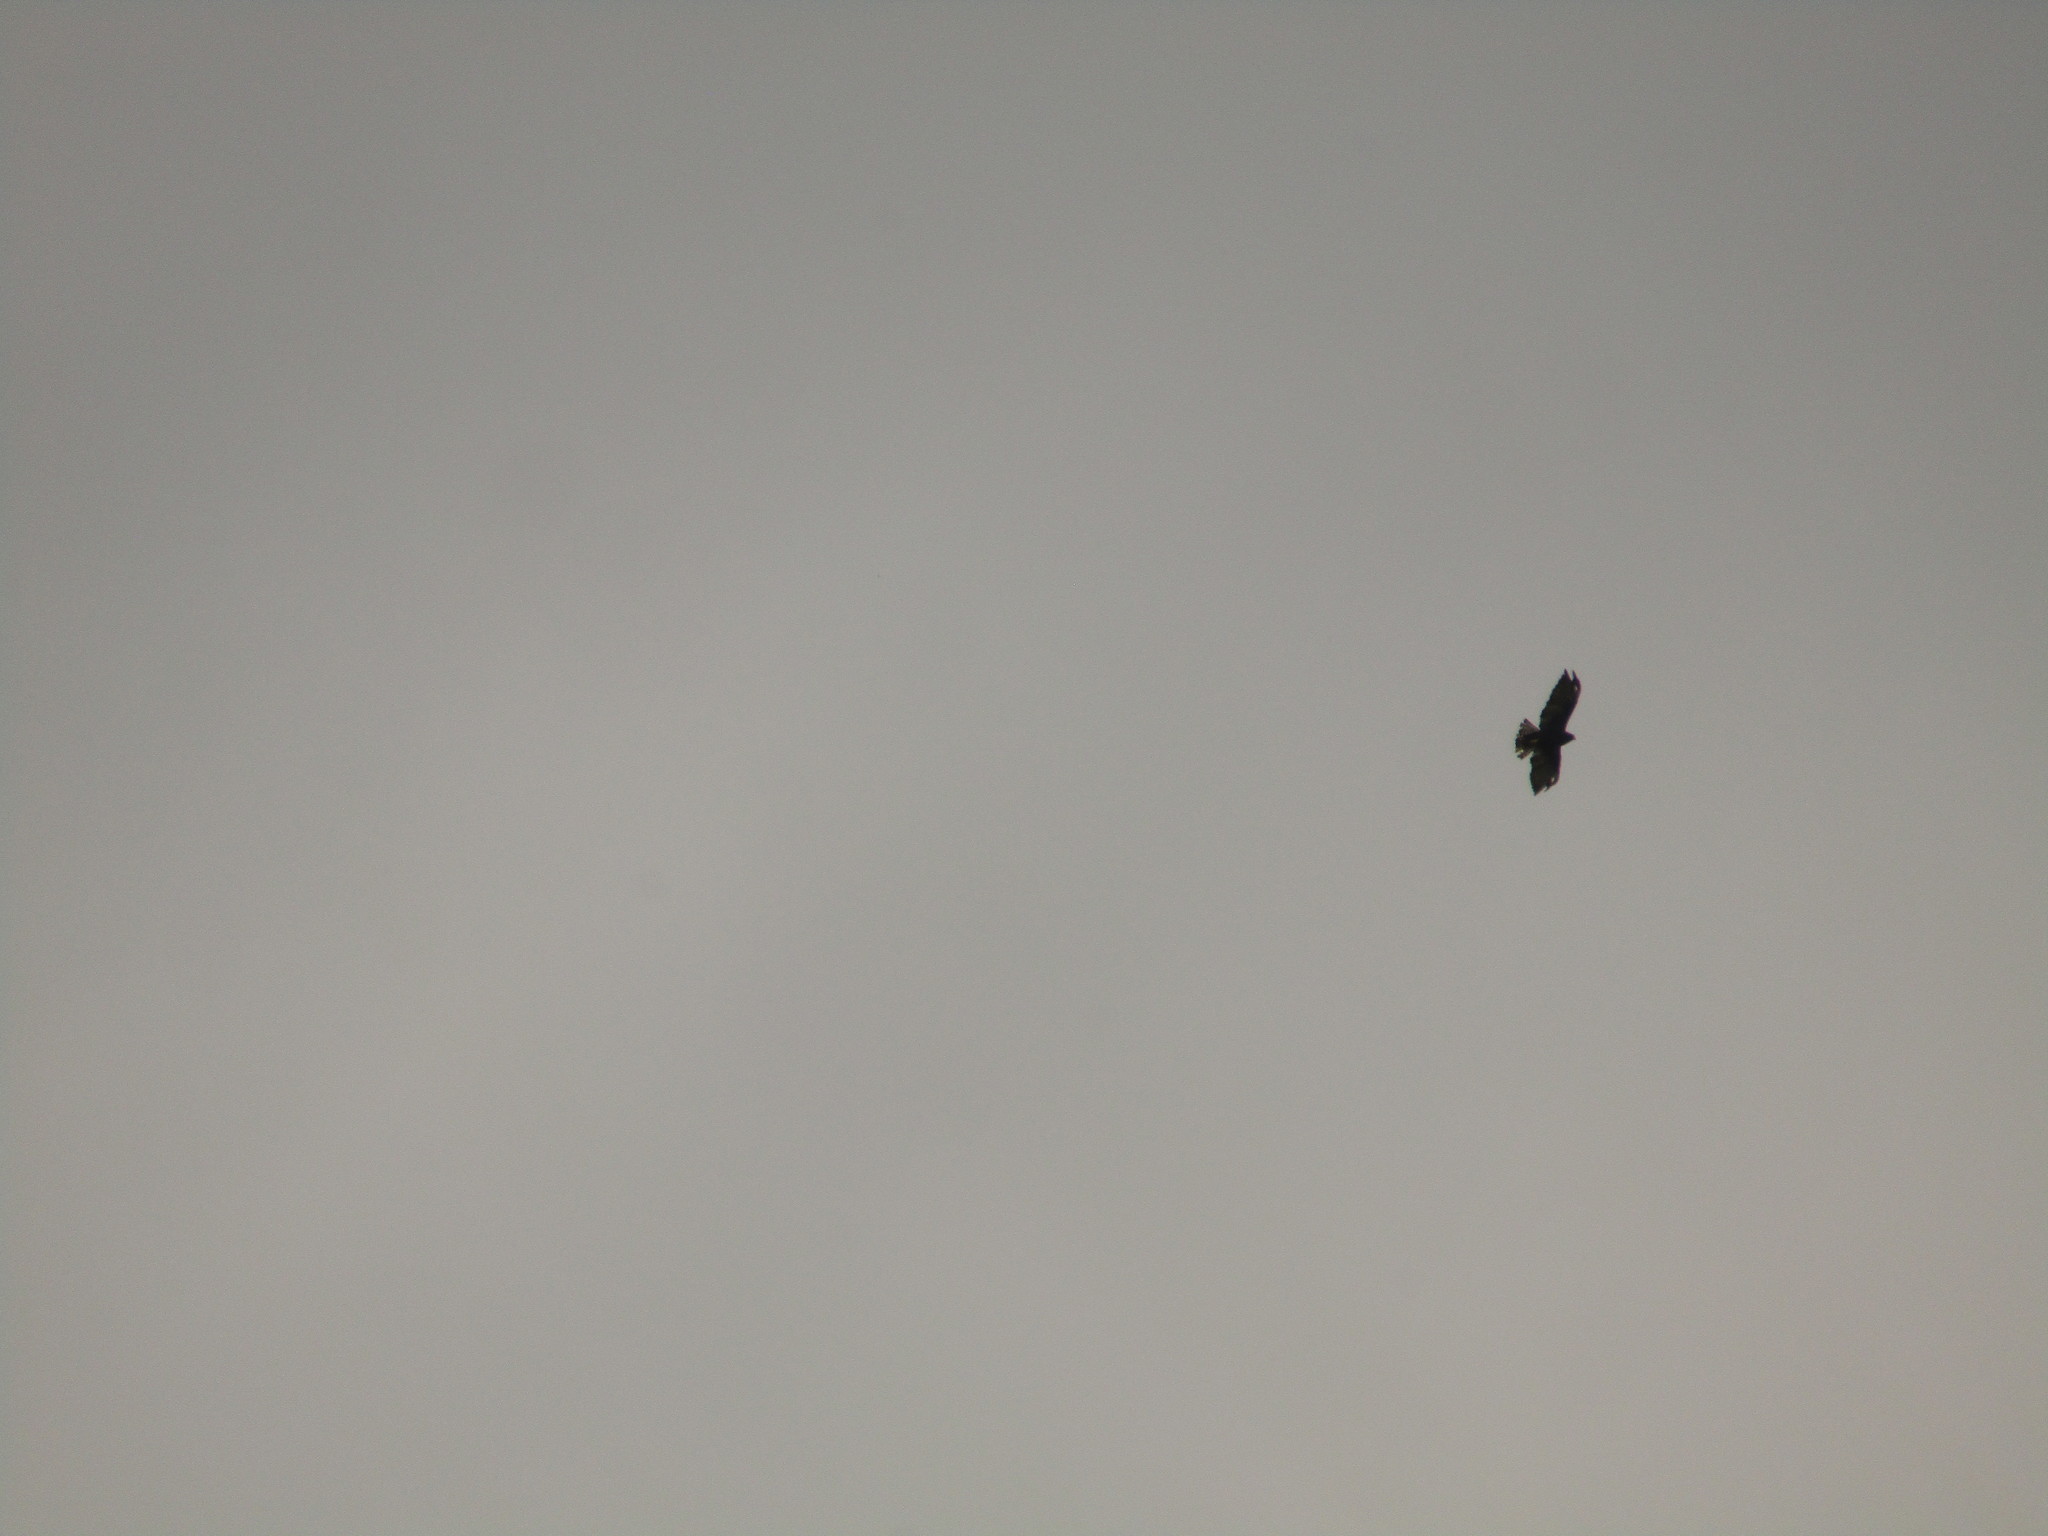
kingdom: Animalia
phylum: Chordata
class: Aves
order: Accipitriformes
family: Accipitridae
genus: Buteo
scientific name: Buteo brachyurus
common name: Short-tailed hawk
